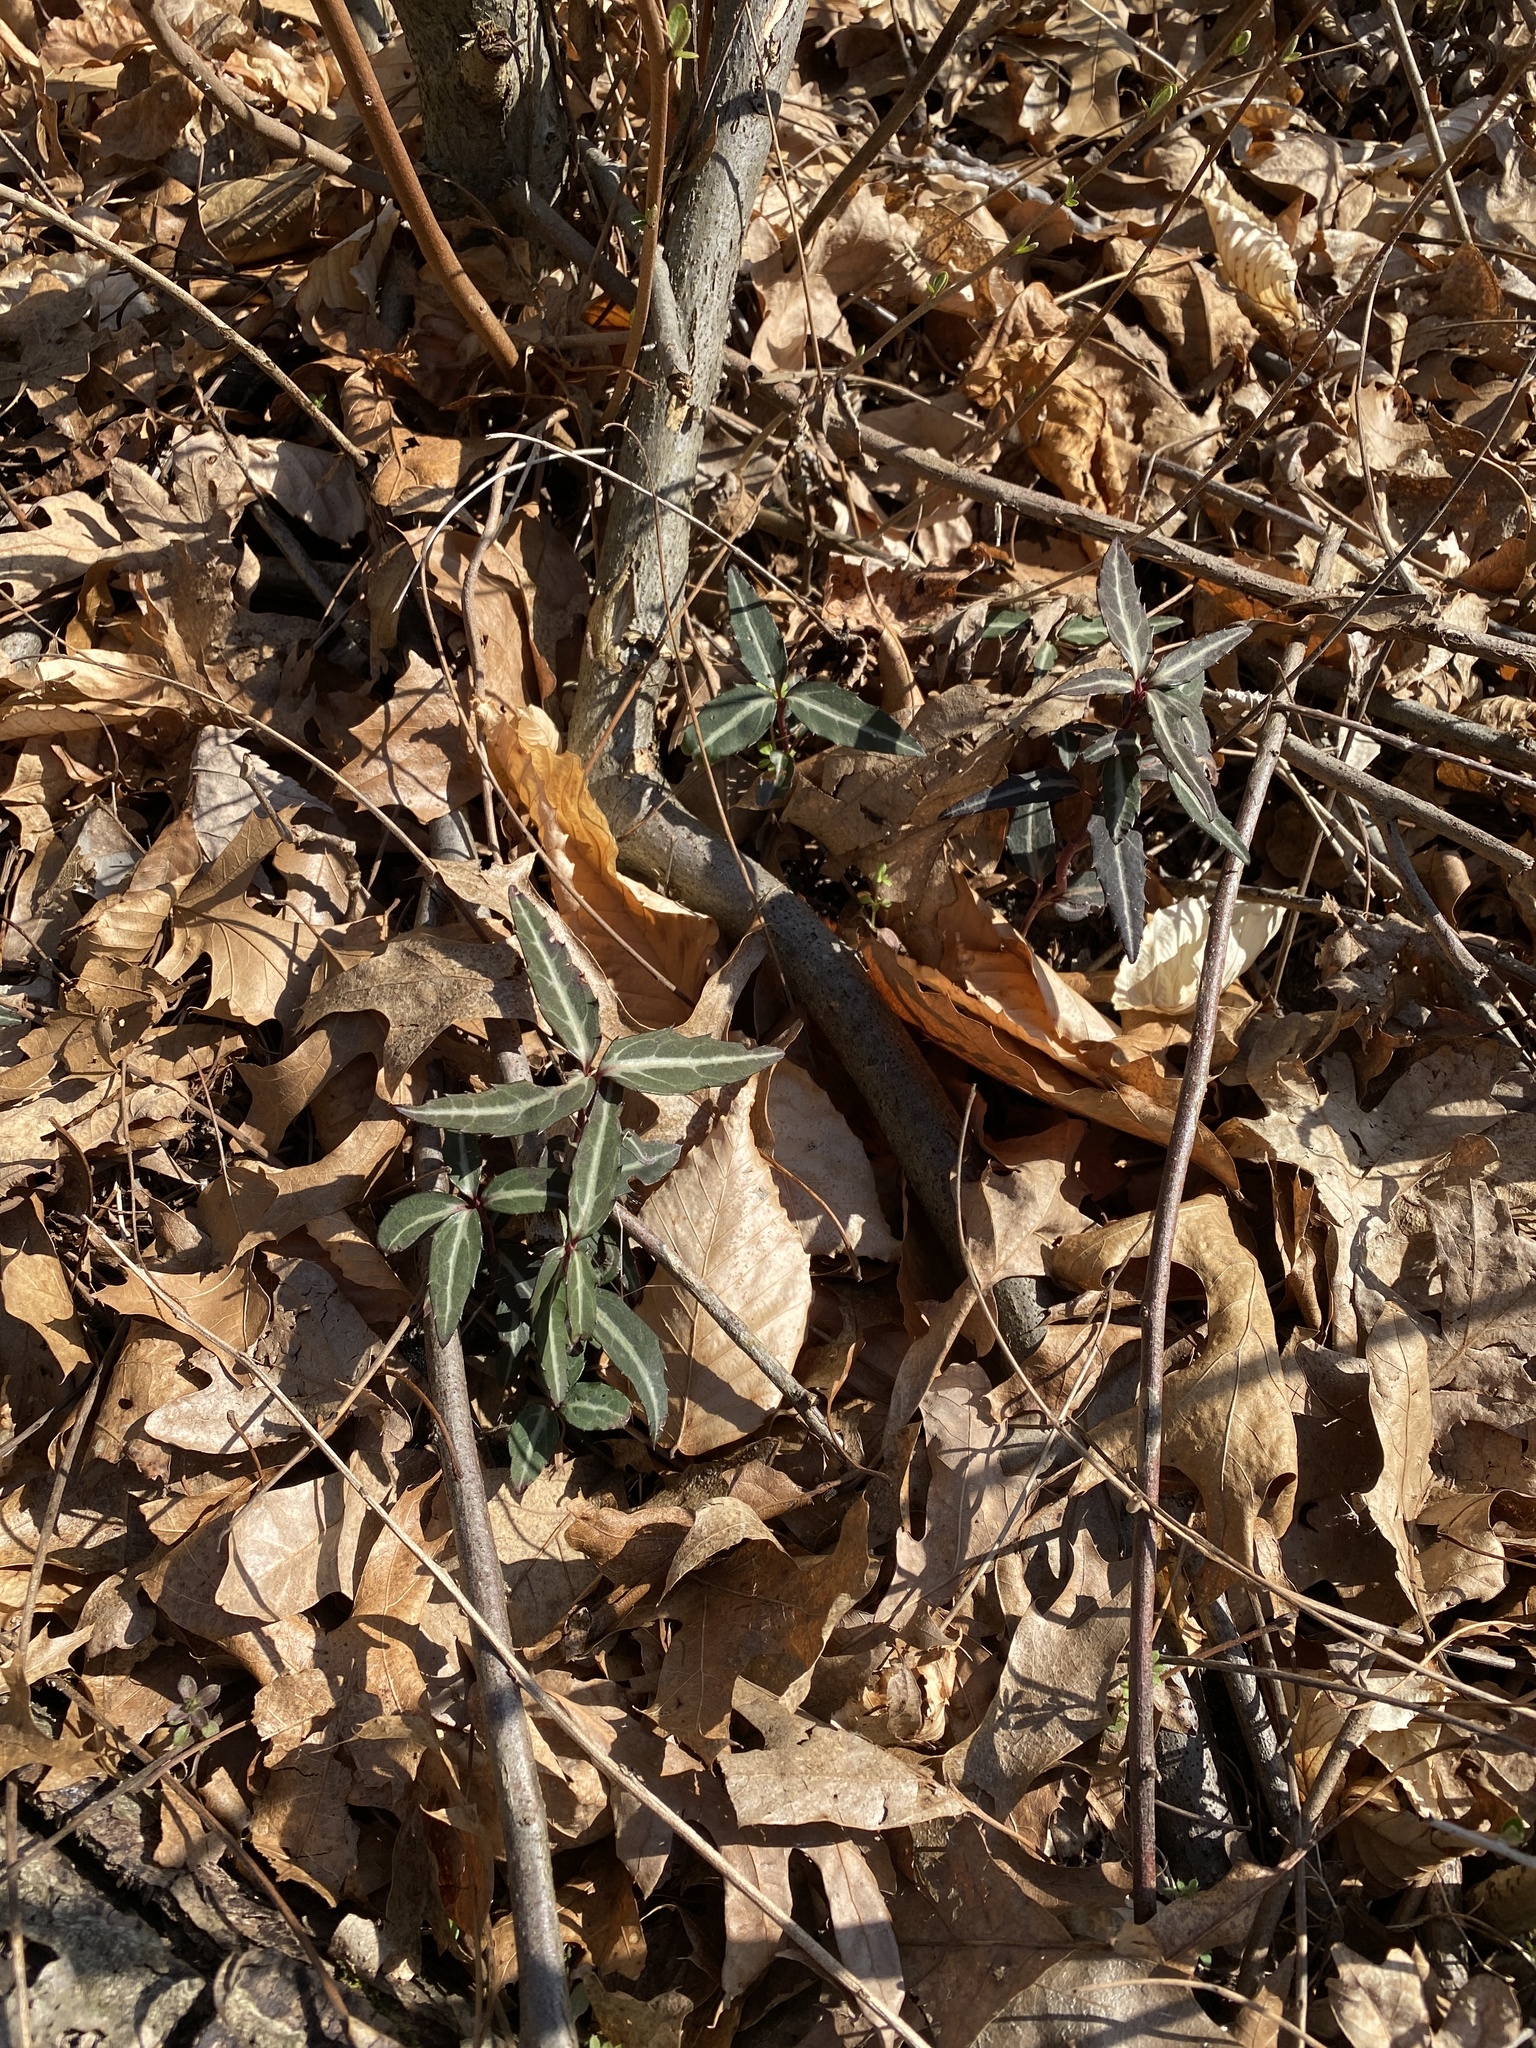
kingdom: Plantae
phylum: Tracheophyta
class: Magnoliopsida
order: Ericales
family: Ericaceae
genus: Chimaphila
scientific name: Chimaphila umbellata
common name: Pipsissewa
